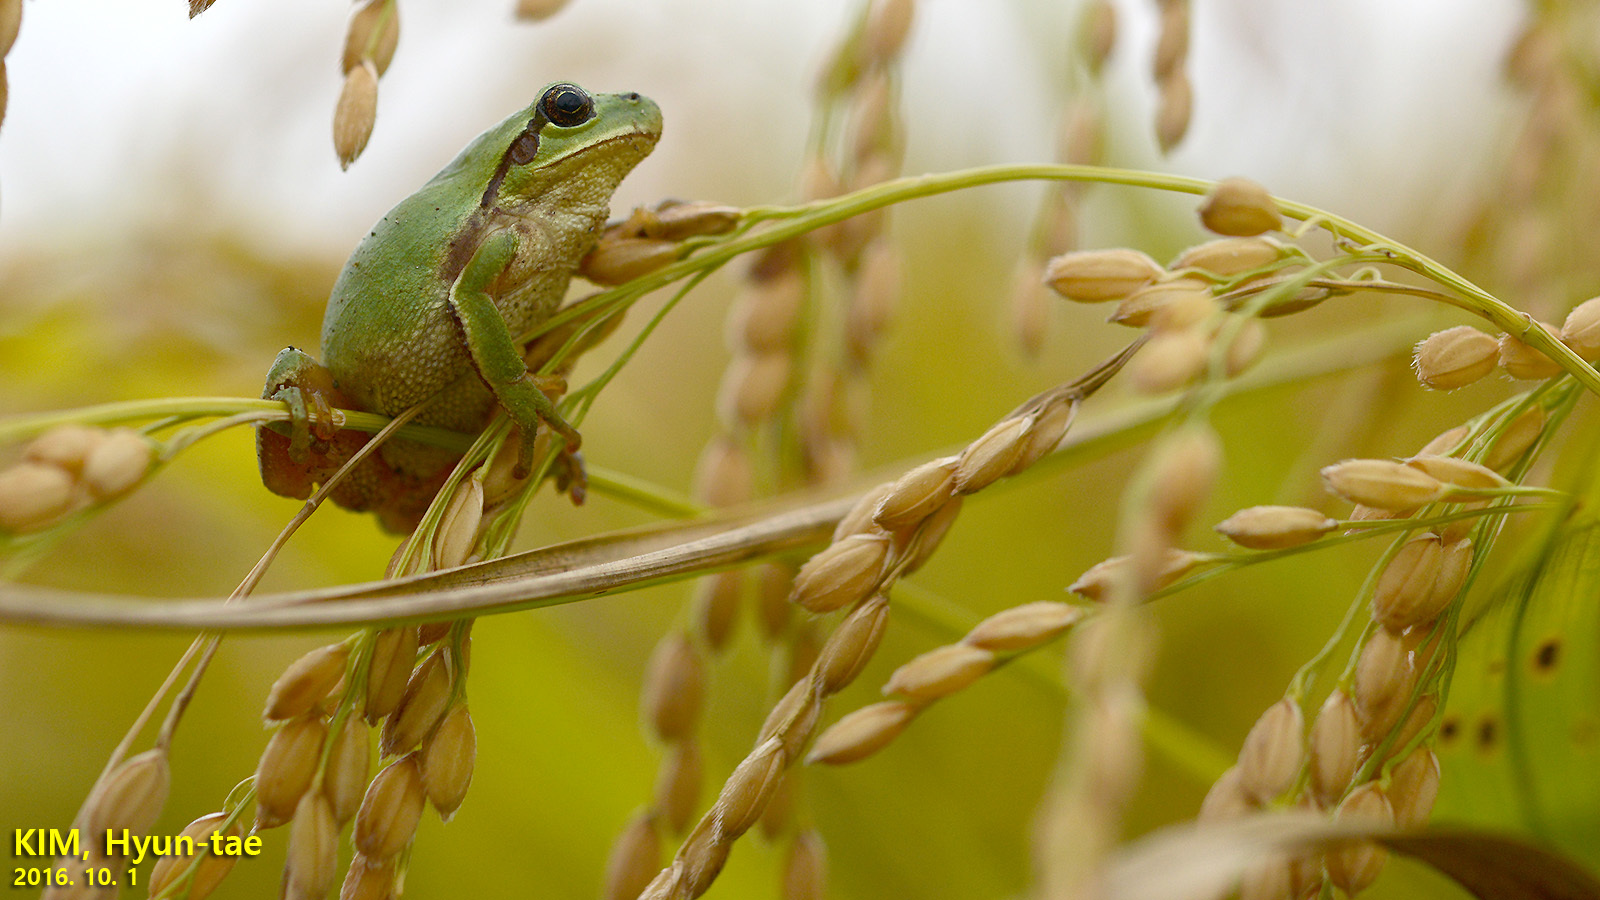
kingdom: Animalia
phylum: Chordata
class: Amphibia
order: Anura
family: Hylidae
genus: Dryophytes
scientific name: Dryophytes immaculatus
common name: North china treefrog
